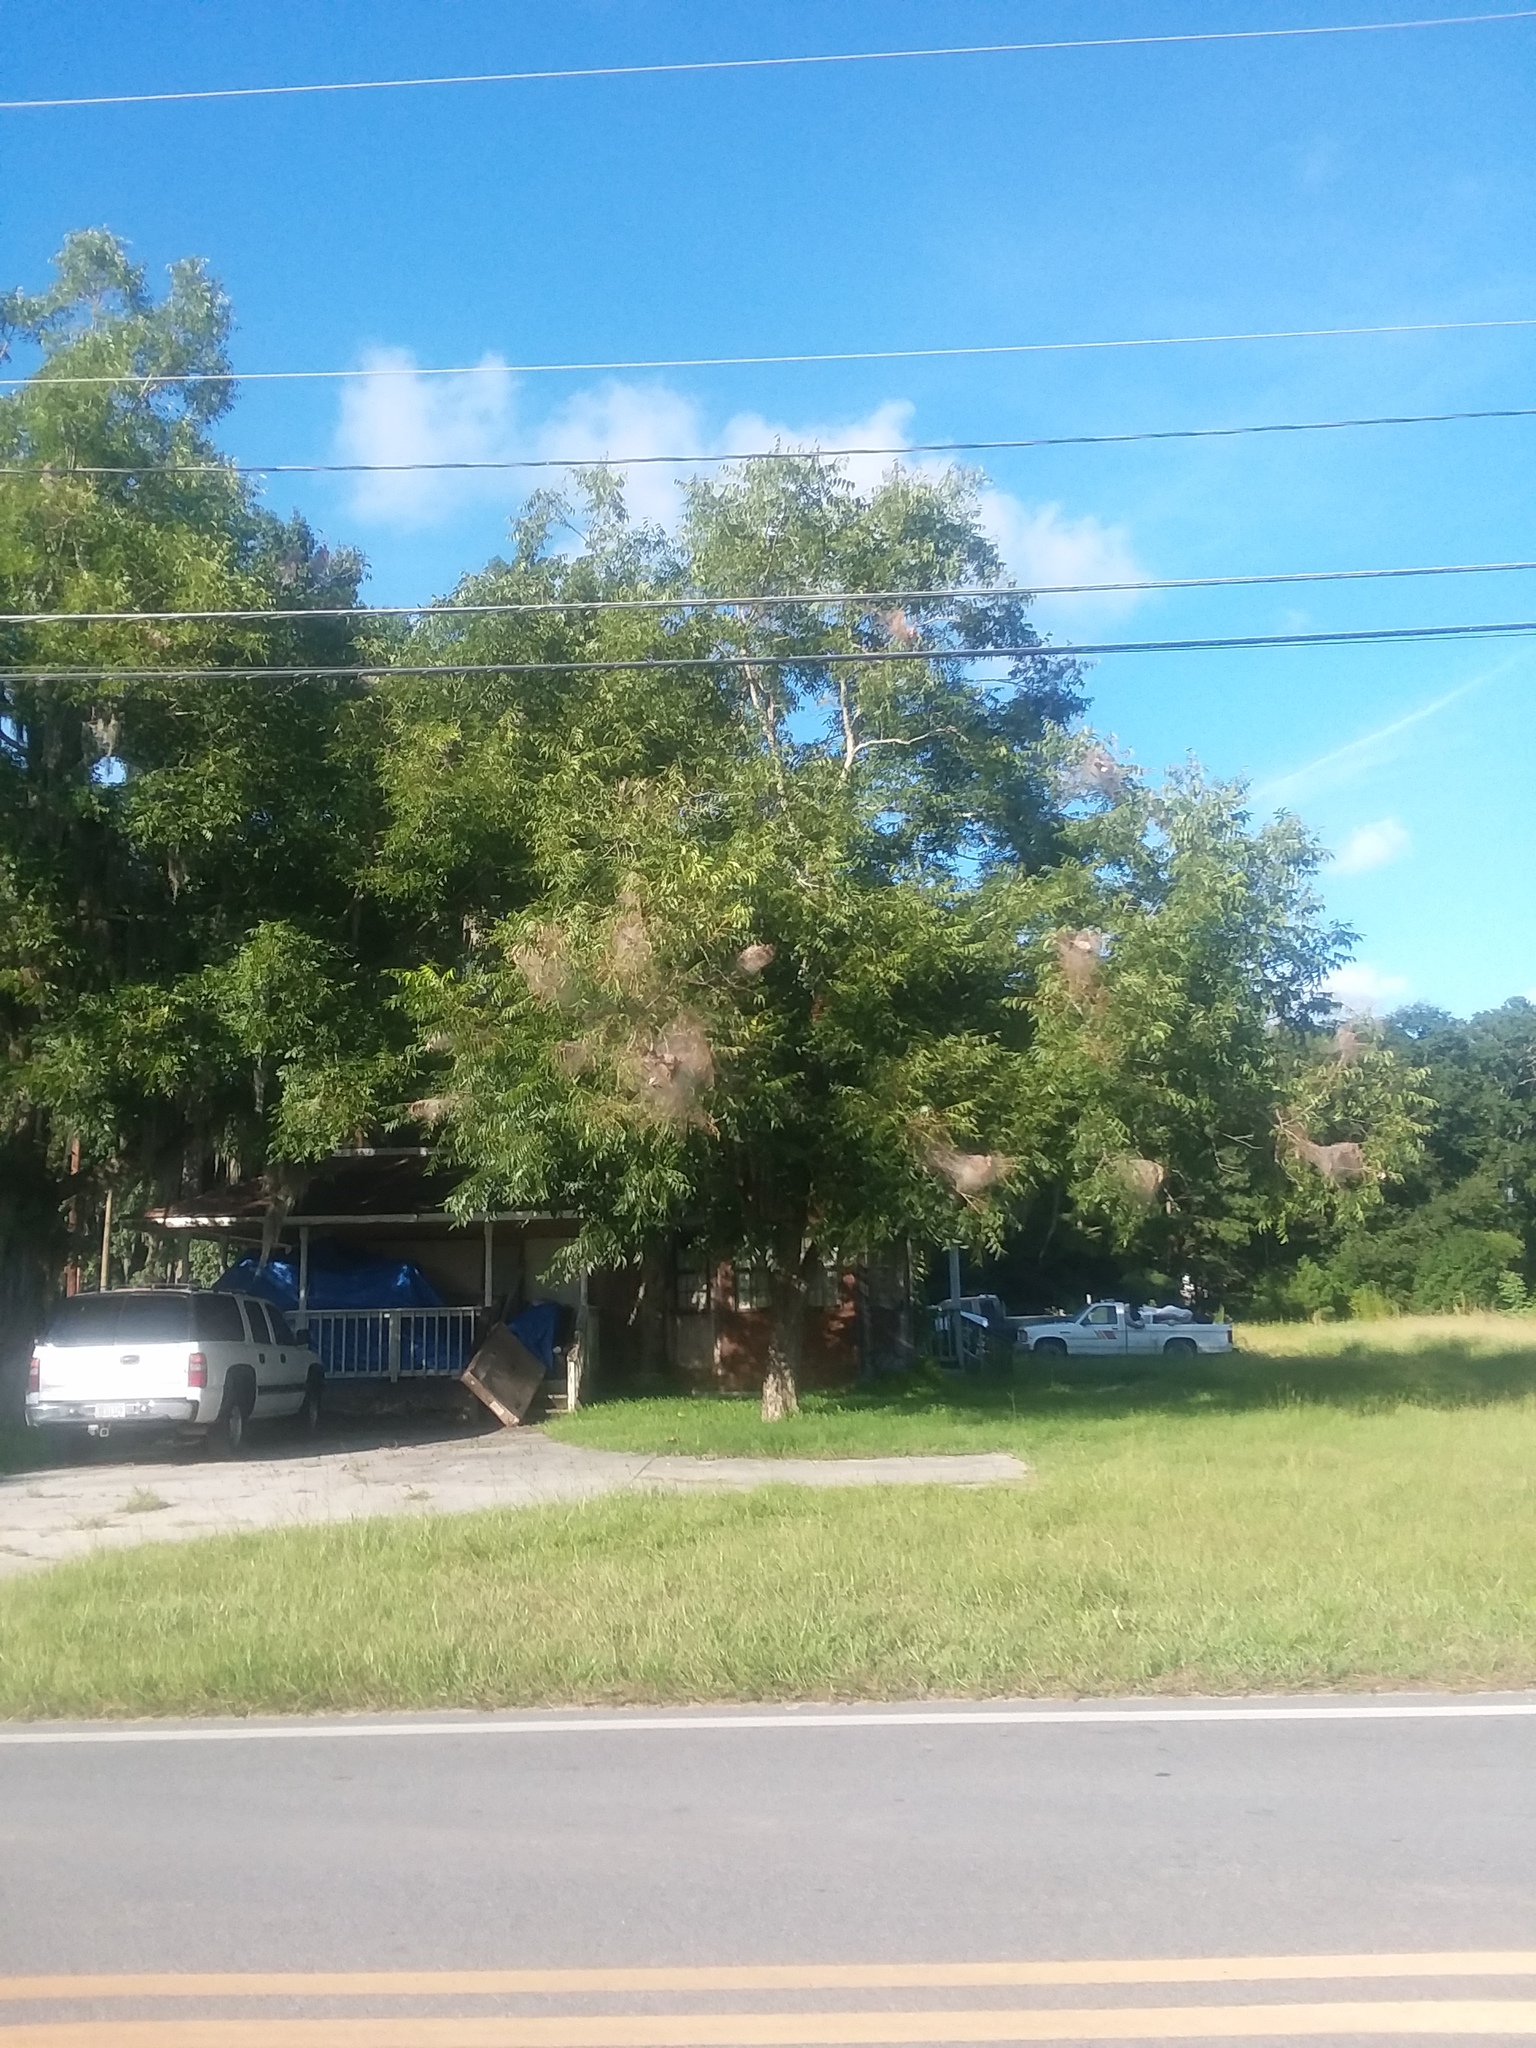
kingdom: Animalia
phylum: Arthropoda
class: Insecta
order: Lepidoptera
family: Erebidae
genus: Hyphantria
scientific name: Hyphantria cunea
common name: American white moth
